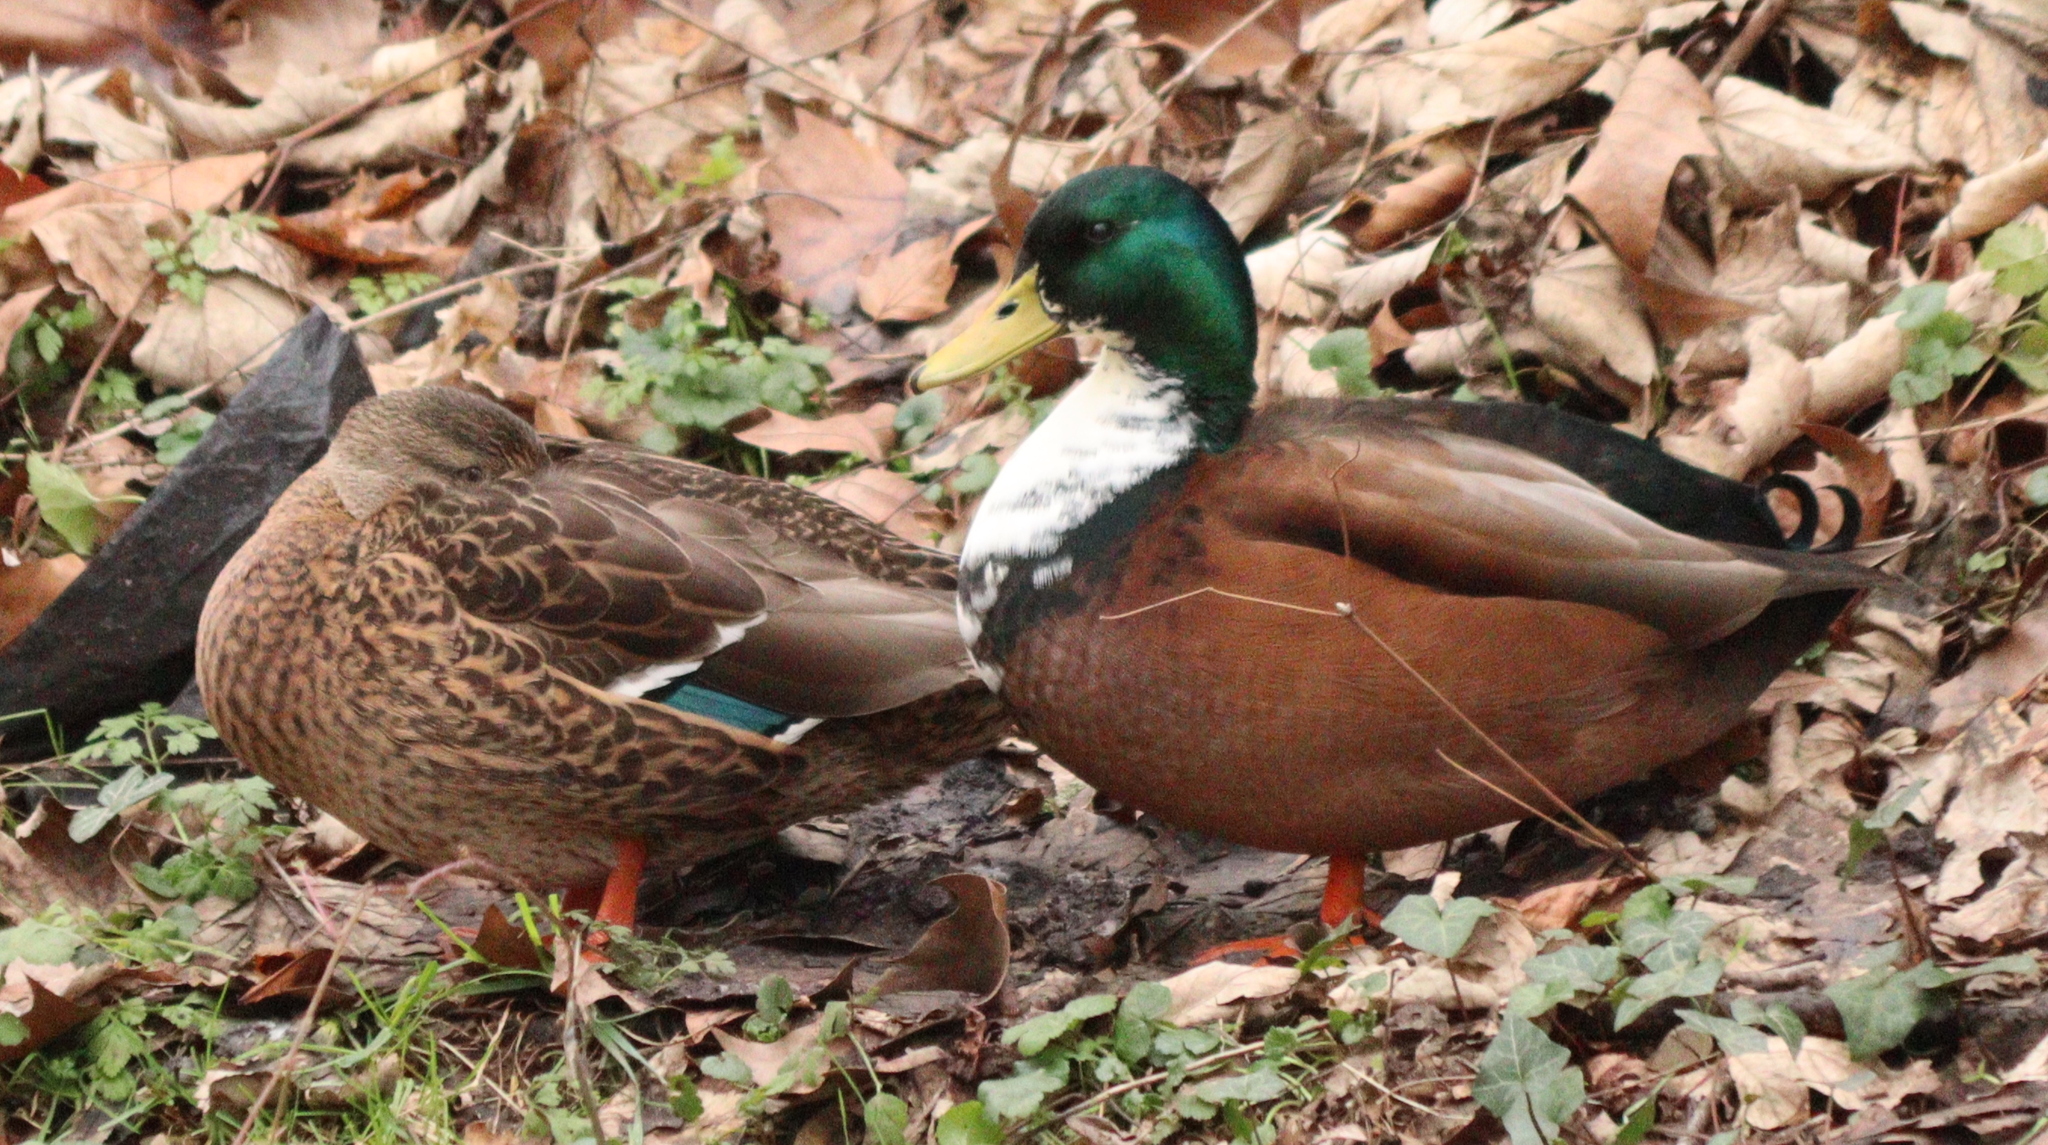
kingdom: Animalia
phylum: Chordata
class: Aves
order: Anseriformes
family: Anatidae
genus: Anas
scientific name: Anas platyrhynchos
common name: Mallard
